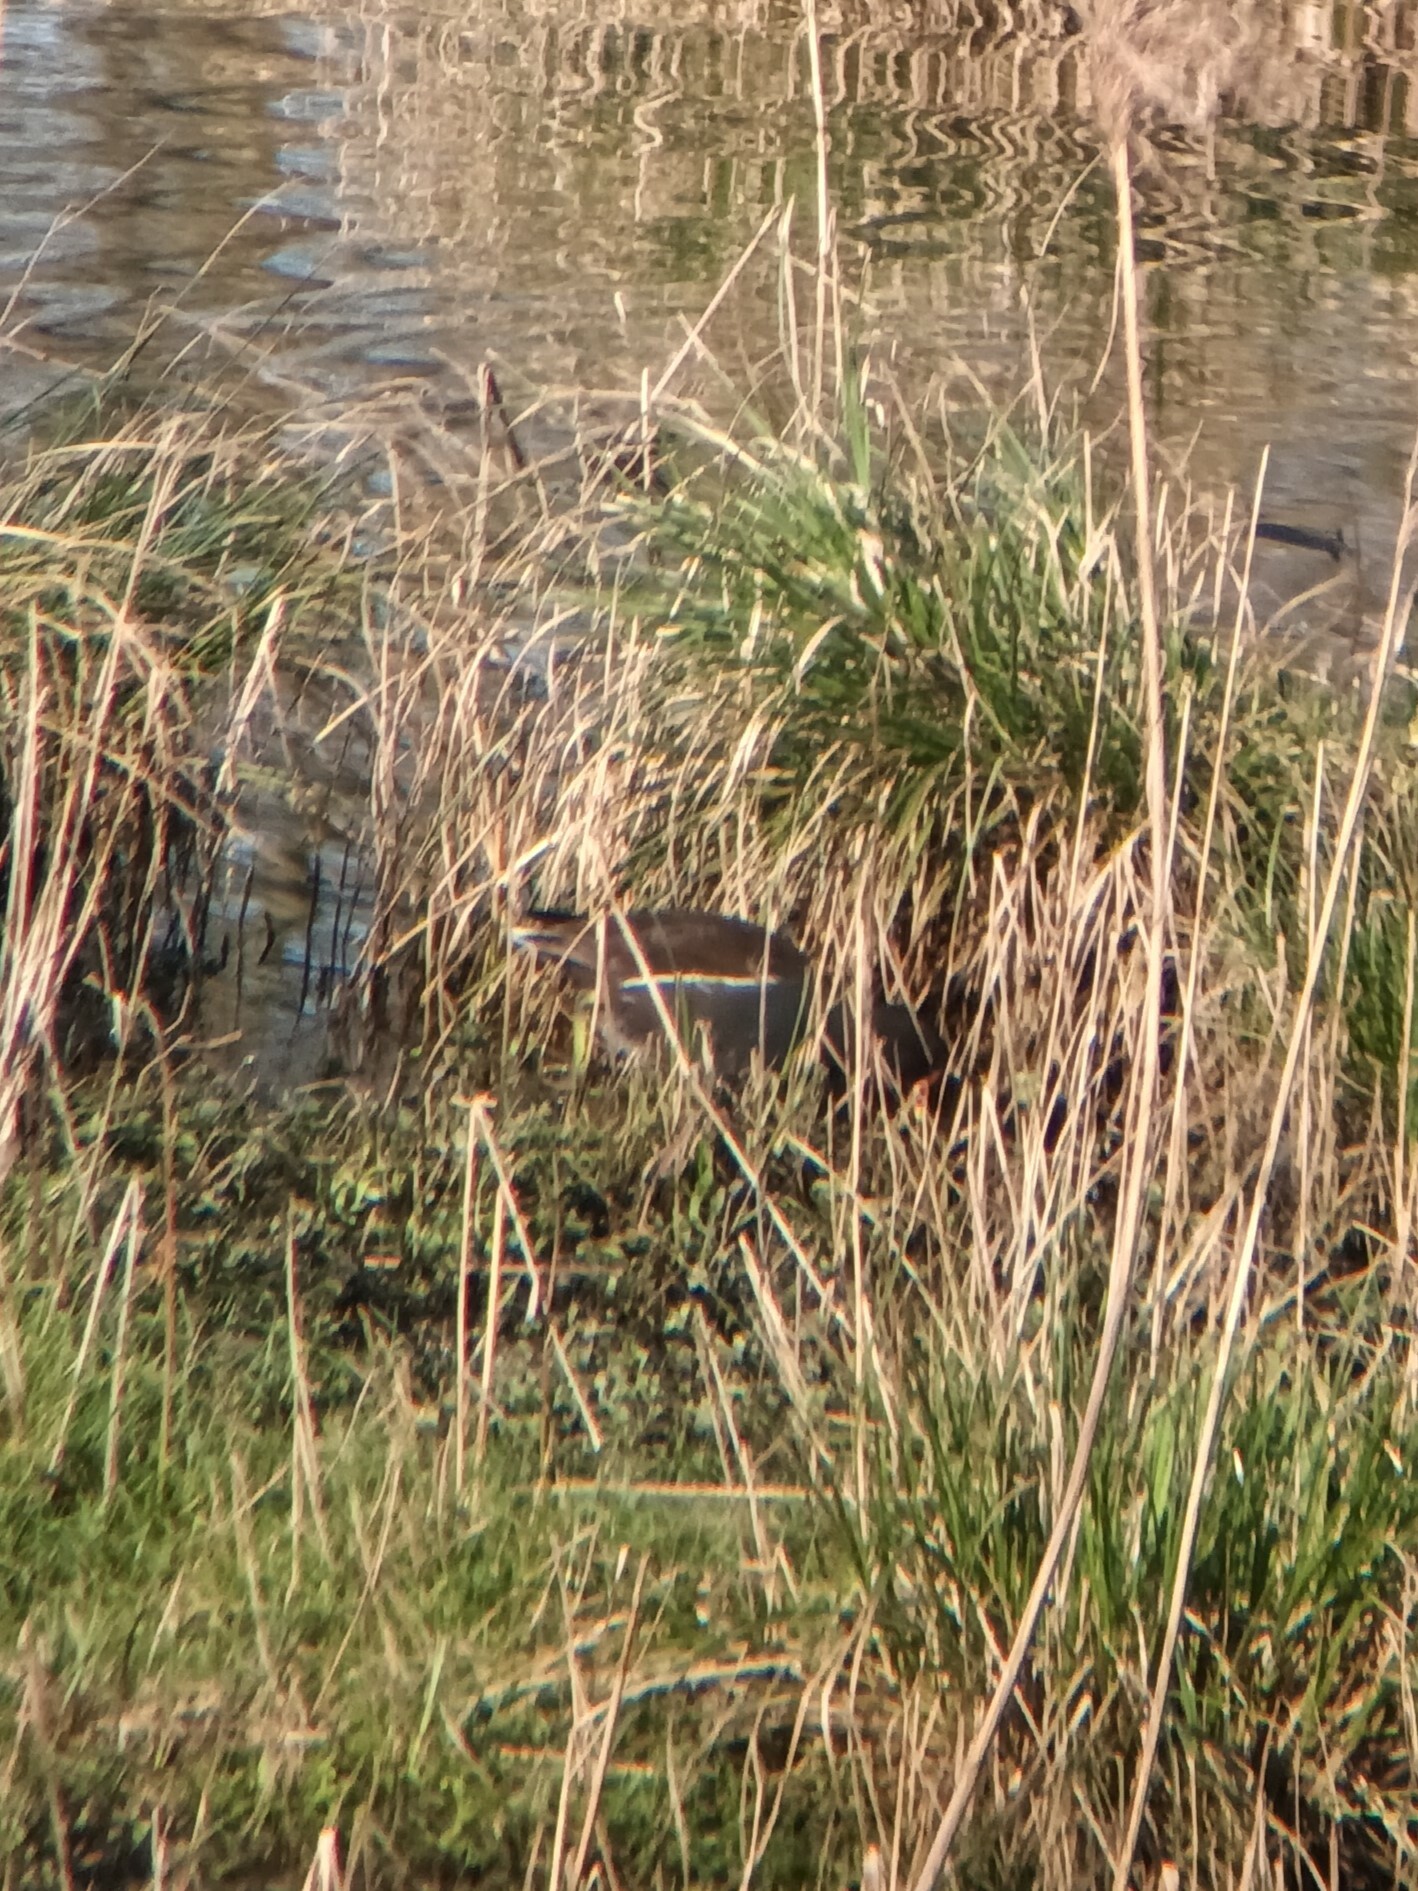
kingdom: Animalia
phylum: Chordata
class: Aves
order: Gruiformes
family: Rallidae
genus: Gallinula
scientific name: Gallinula chloropus
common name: Common moorhen
